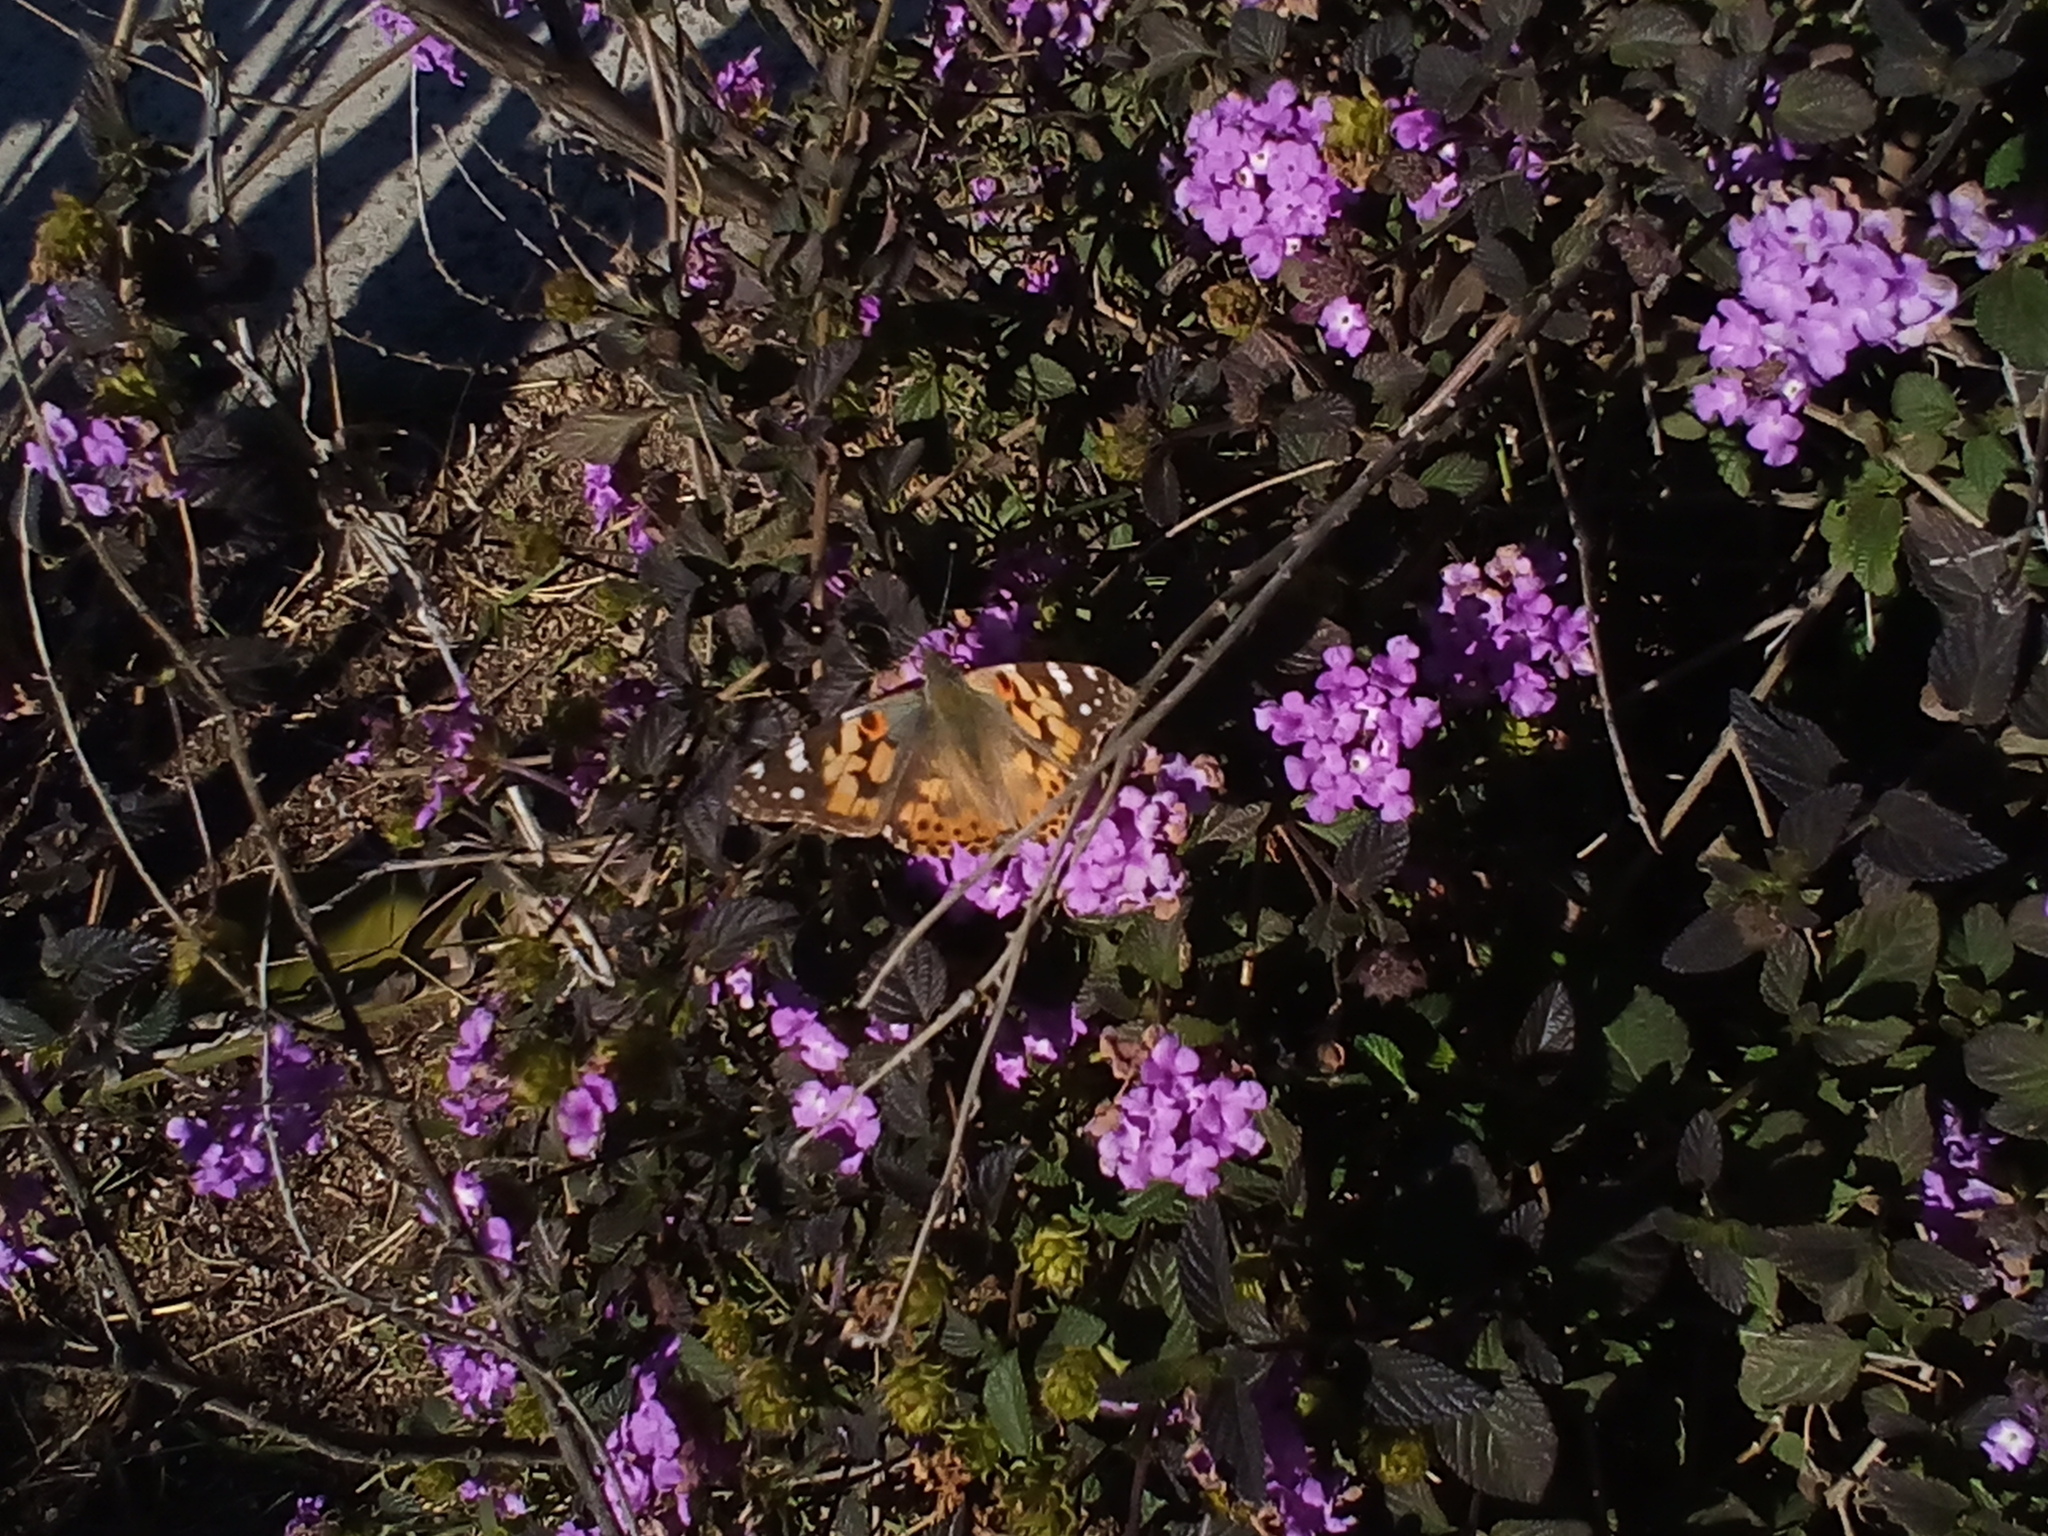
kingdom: Animalia
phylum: Arthropoda
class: Insecta
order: Lepidoptera
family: Nymphalidae
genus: Vanessa
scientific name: Vanessa cardui
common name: Painted lady
